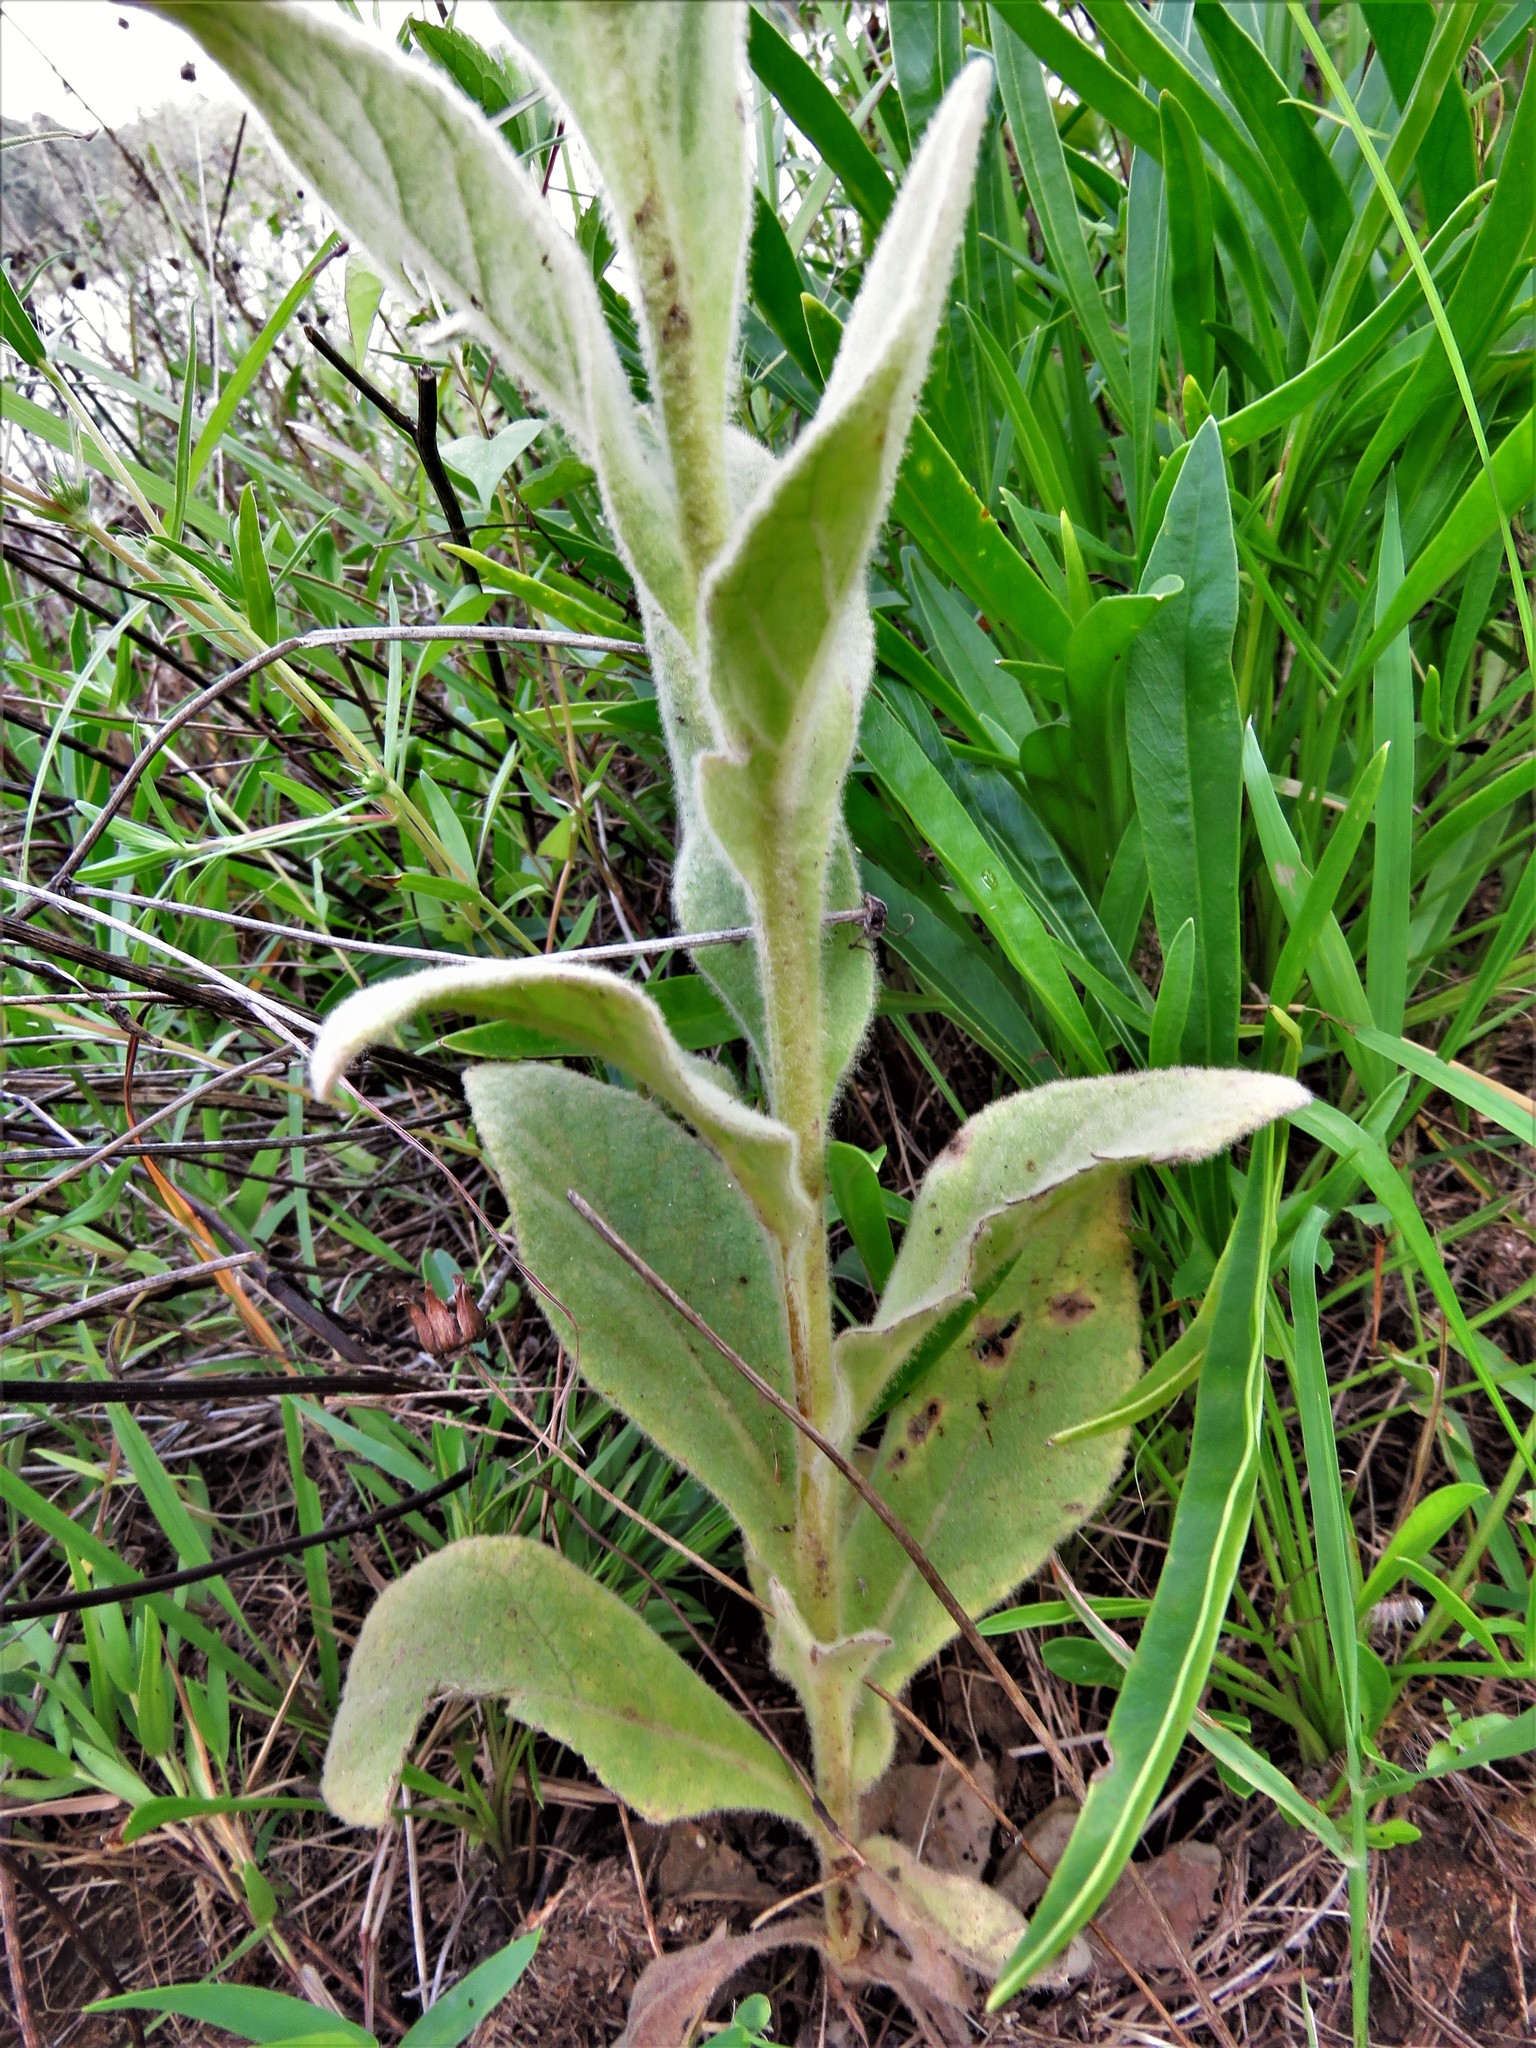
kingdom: Plantae
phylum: Tracheophyta
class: Magnoliopsida
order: Lamiales
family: Scrophulariaceae
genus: Verbascum
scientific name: Verbascum thapsus
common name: Common mullein
